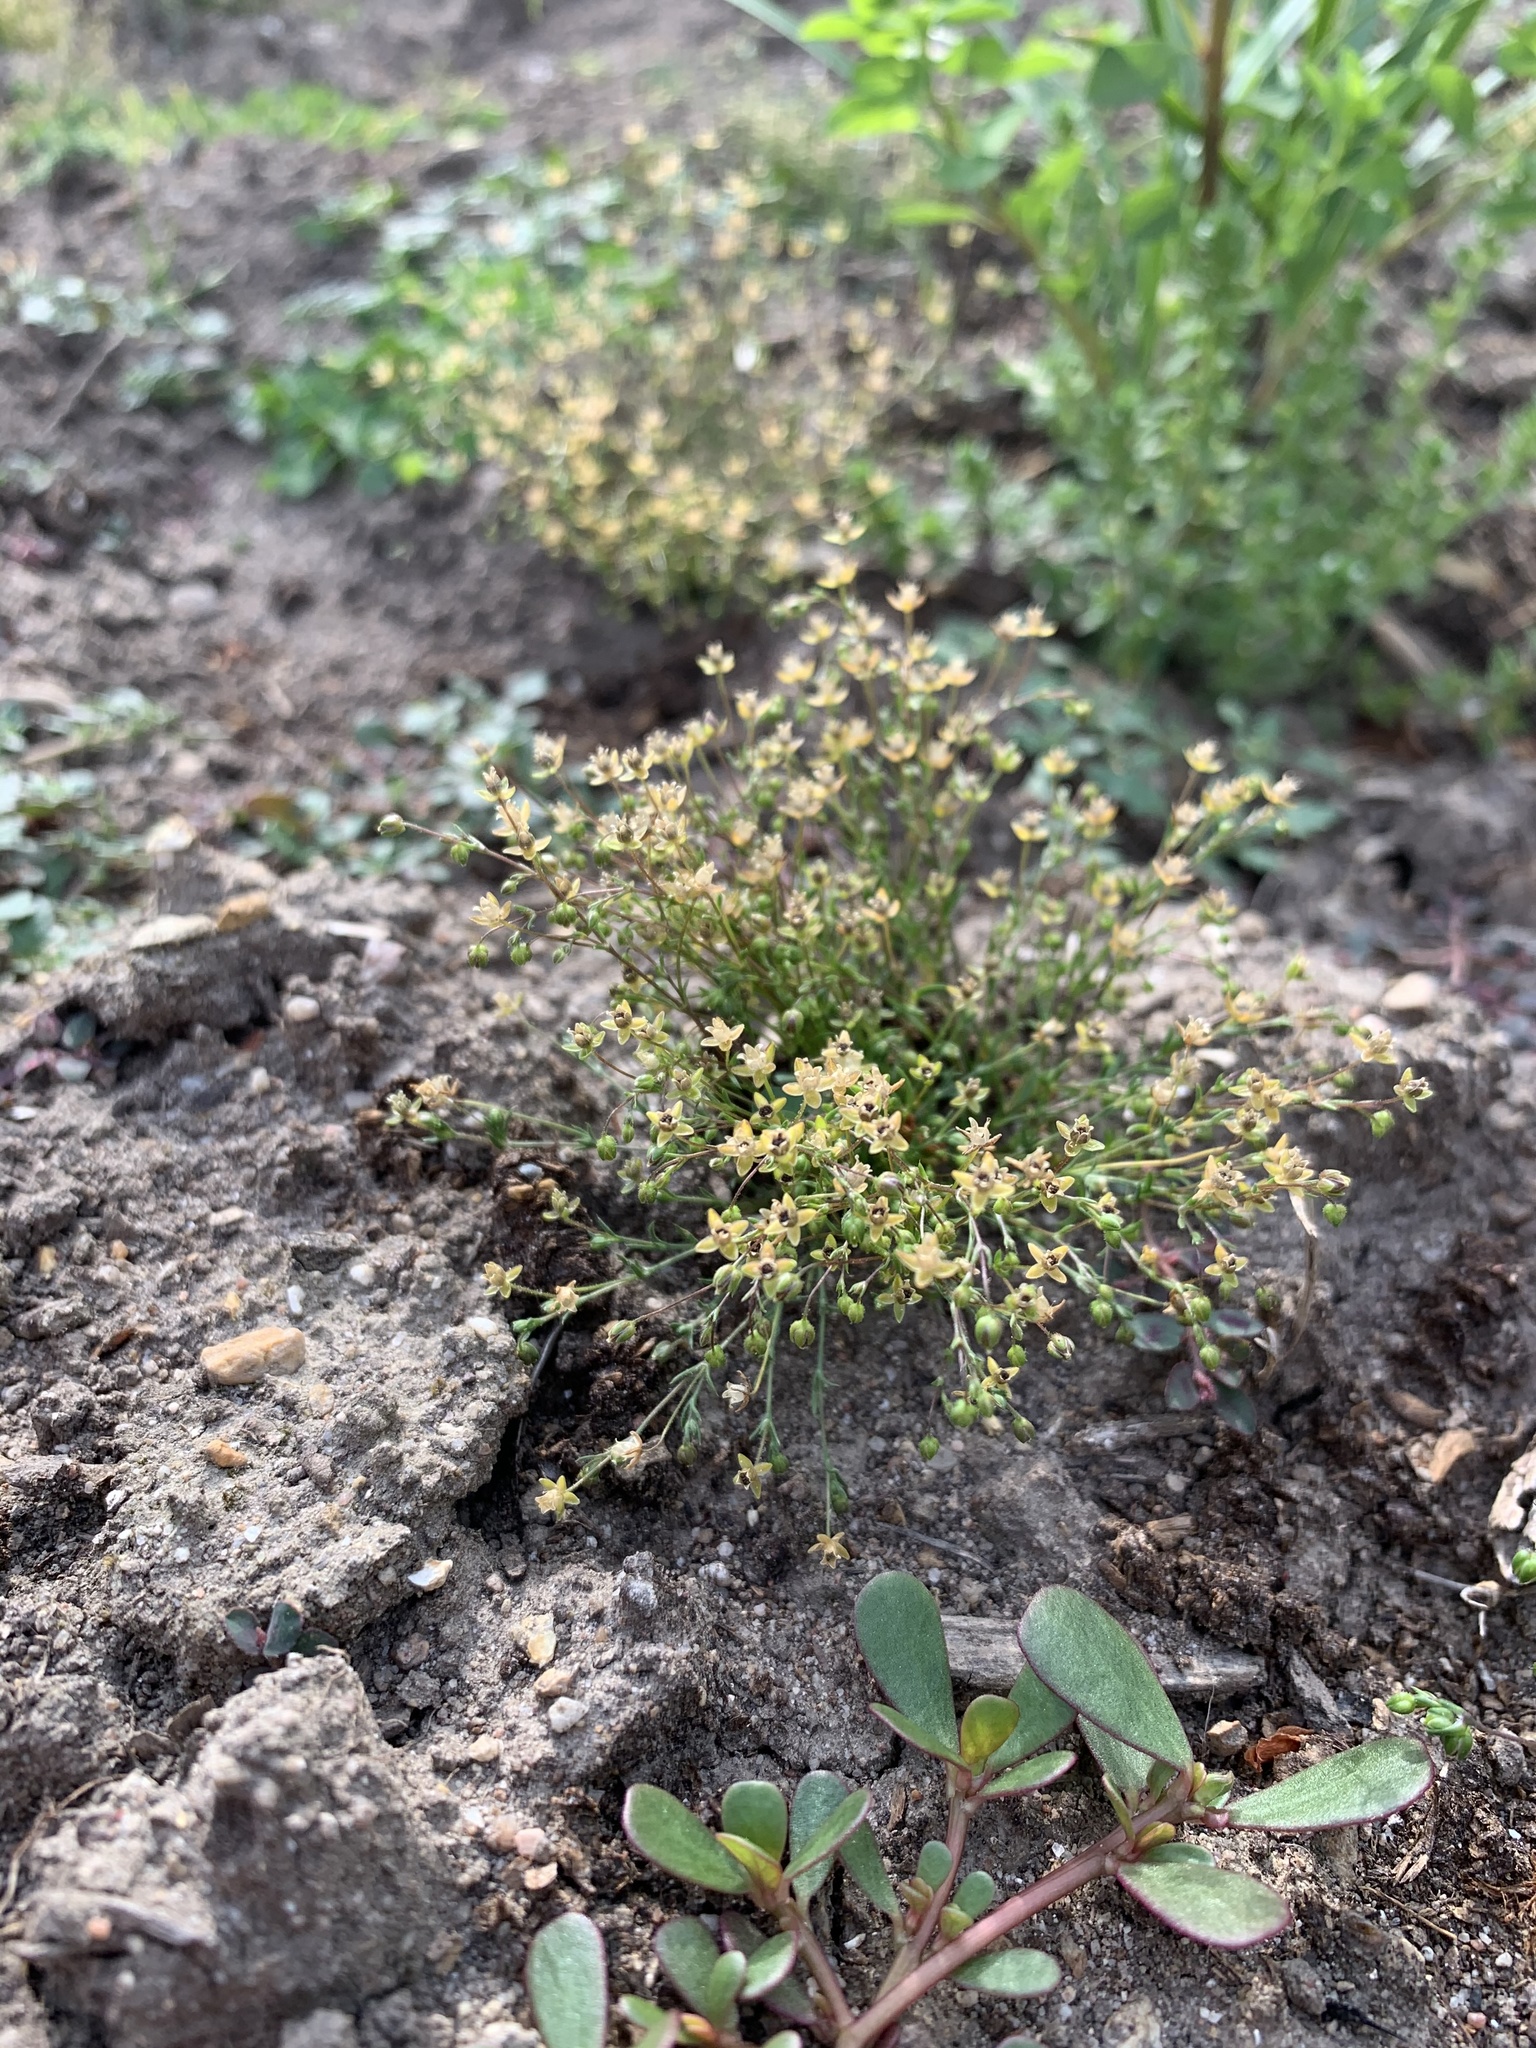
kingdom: Plantae
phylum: Tracheophyta
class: Magnoliopsida
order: Caryophyllales
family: Caryophyllaceae
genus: Sagina
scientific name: Sagina apetala
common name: Annual pearlwort
